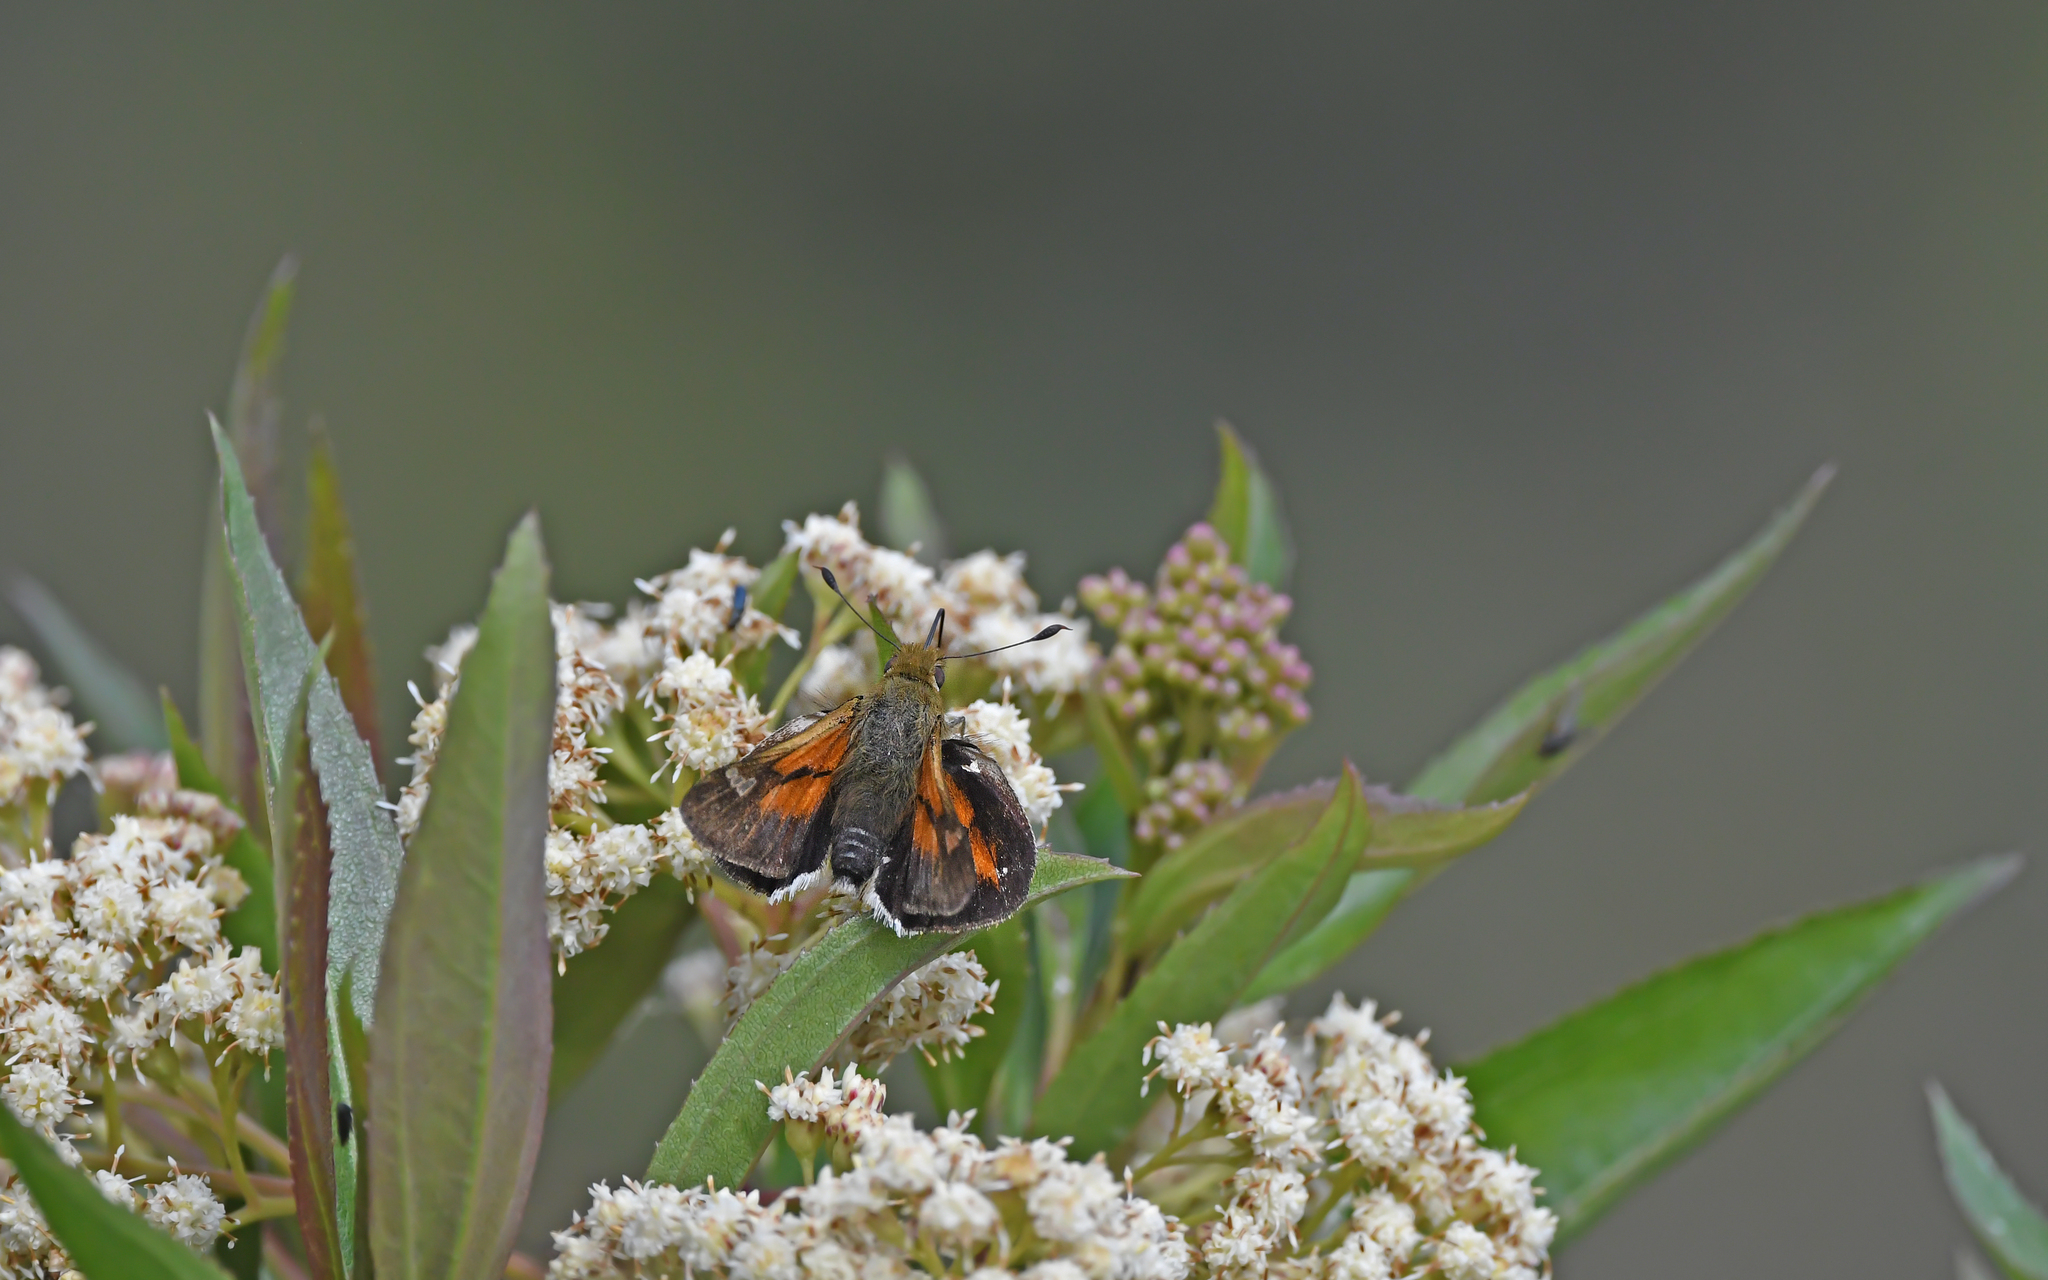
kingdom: Animalia
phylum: Arthropoda
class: Insecta
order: Lepidoptera
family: Hesperiidae
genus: Serdis
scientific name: Serdis viridicans
